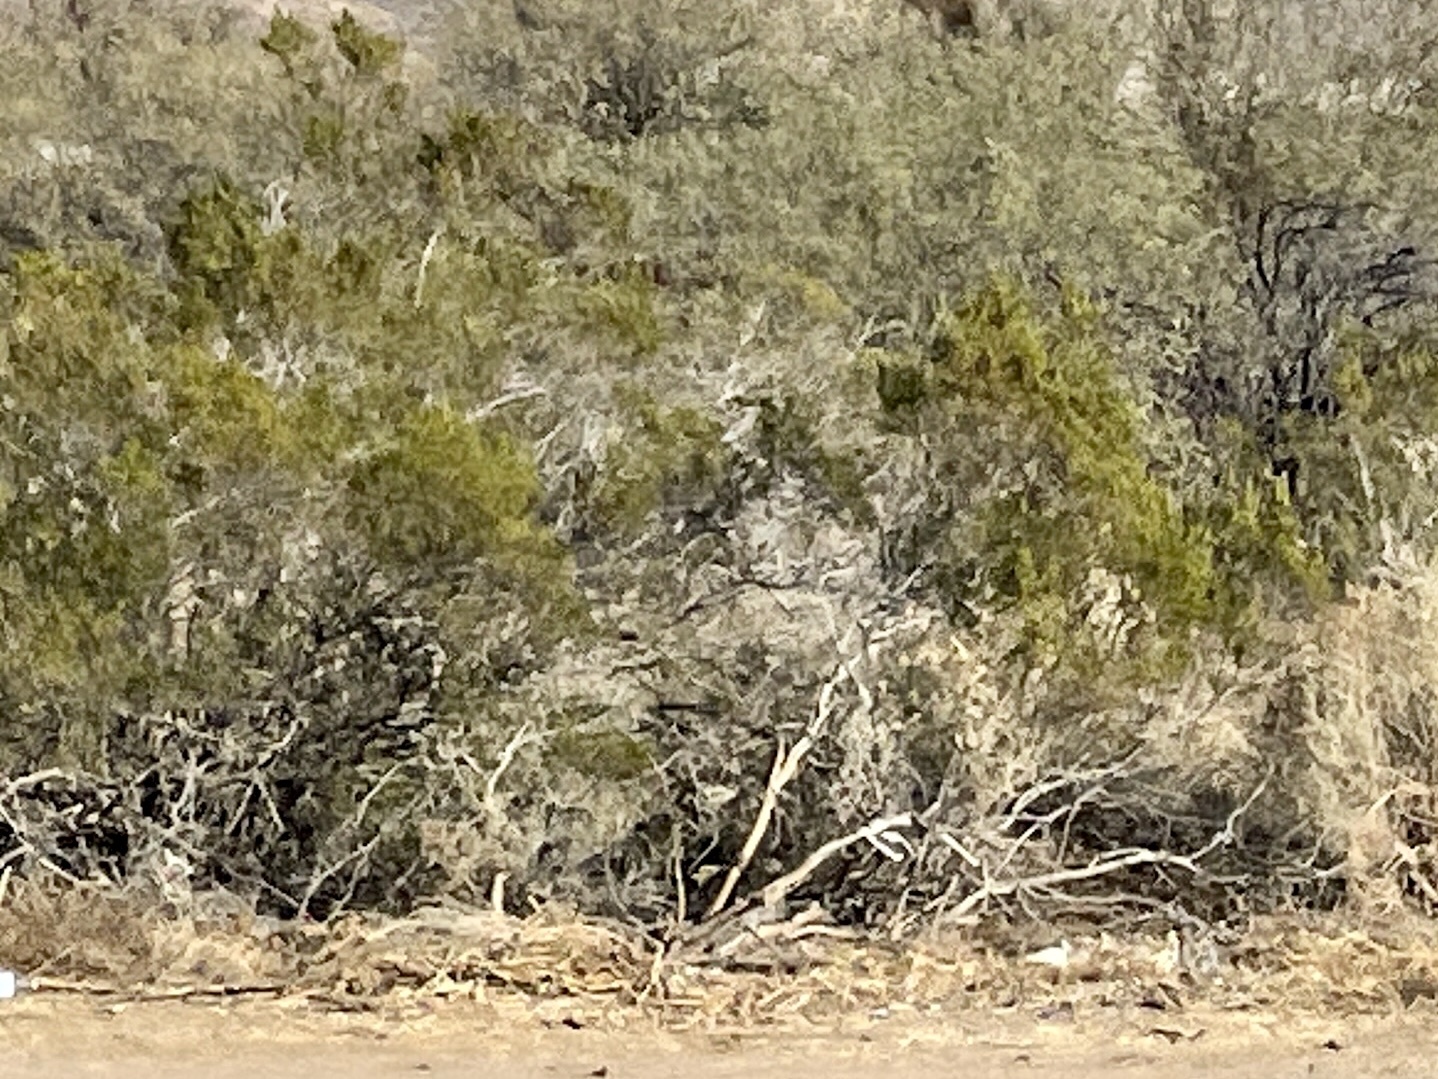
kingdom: Plantae
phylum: Tracheophyta
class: Magnoliopsida
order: Zygophyllales
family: Zygophyllaceae
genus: Larrea
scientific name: Larrea tridentata
